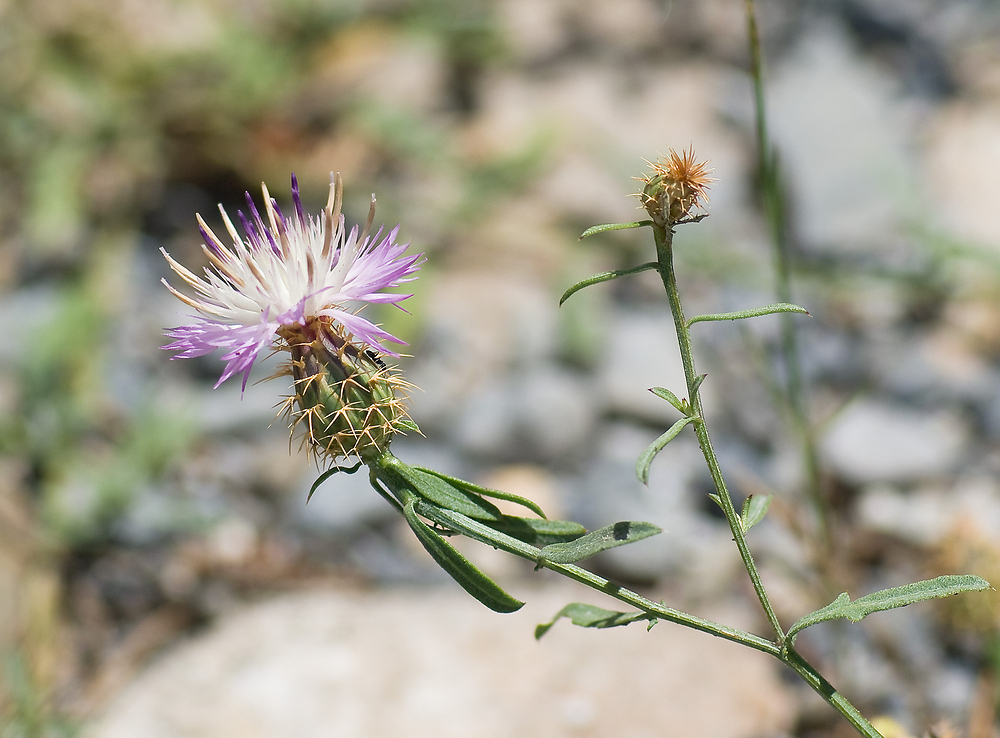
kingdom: Plantae
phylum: Tracheophyta
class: Magnoliopsida
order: Asterales
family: Asteraceae
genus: Centaurea
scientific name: Centaurea aspera
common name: Rough star-thistle
